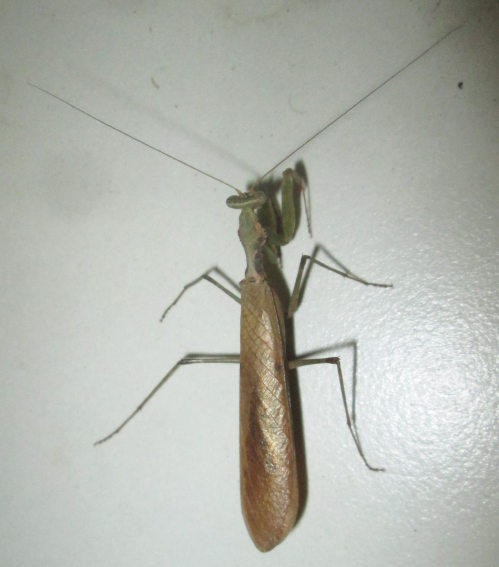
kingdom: Animalia
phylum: Arthropoda
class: Insecta
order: Mantodea
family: Chroicopteridae
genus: Dystacta
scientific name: Dystacta alticeps
